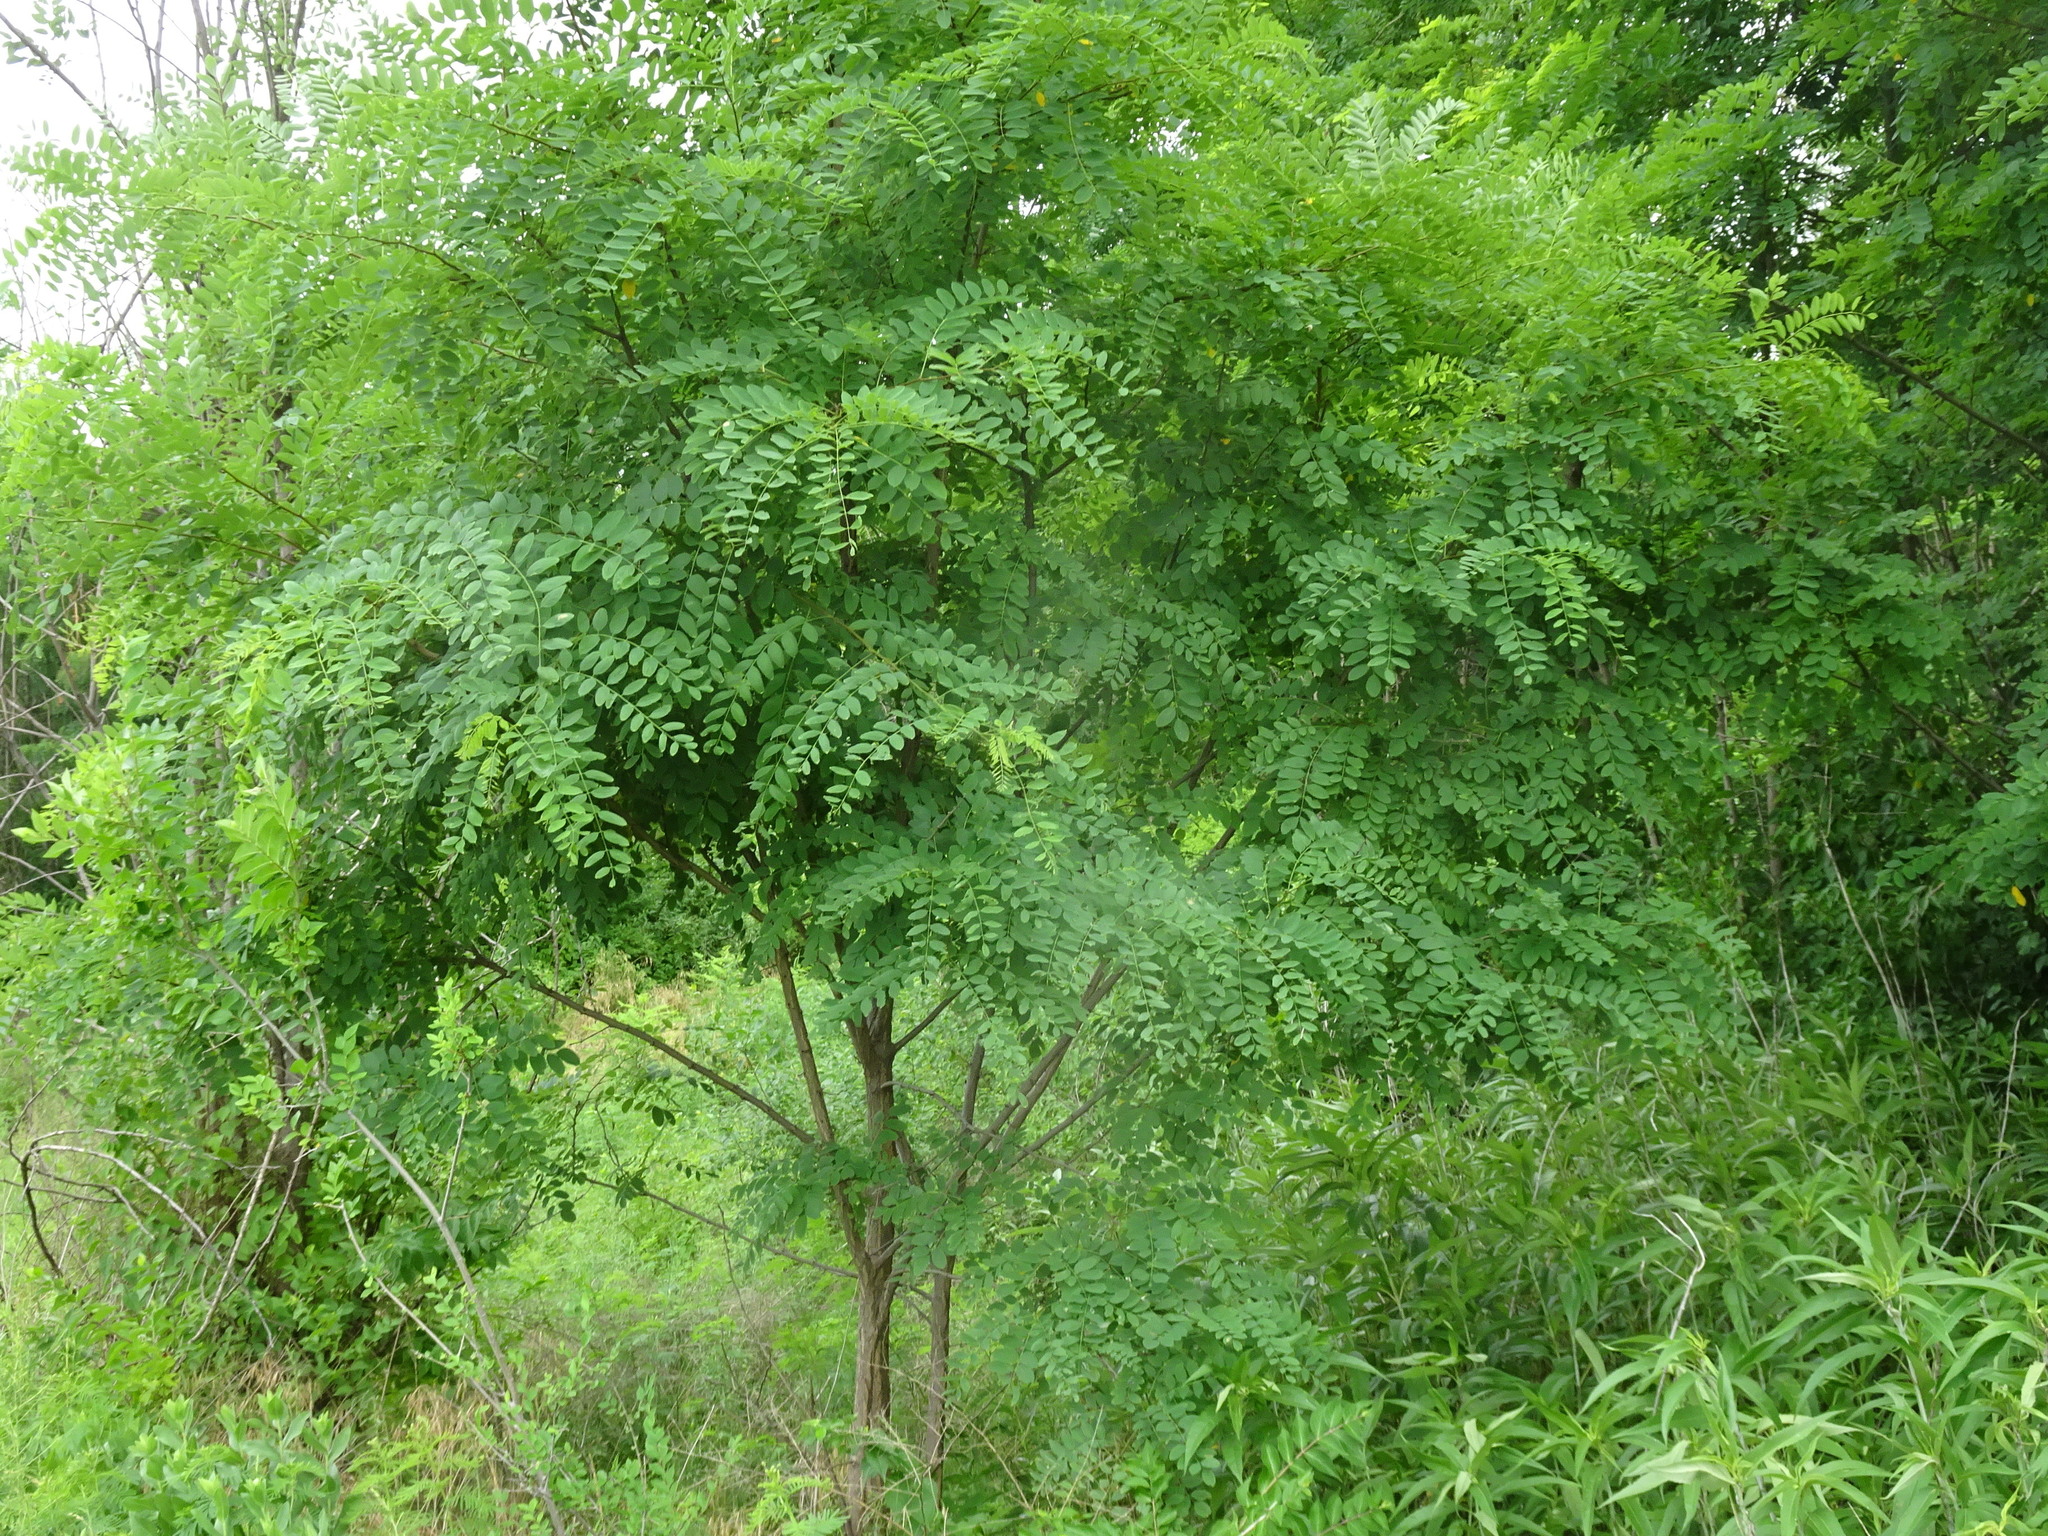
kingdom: Plantae
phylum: Tracheophyta
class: Magnoliopsida
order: Fabales
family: Fabaceae
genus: Robinia
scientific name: Robinia pseudoacacia
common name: Black locust
